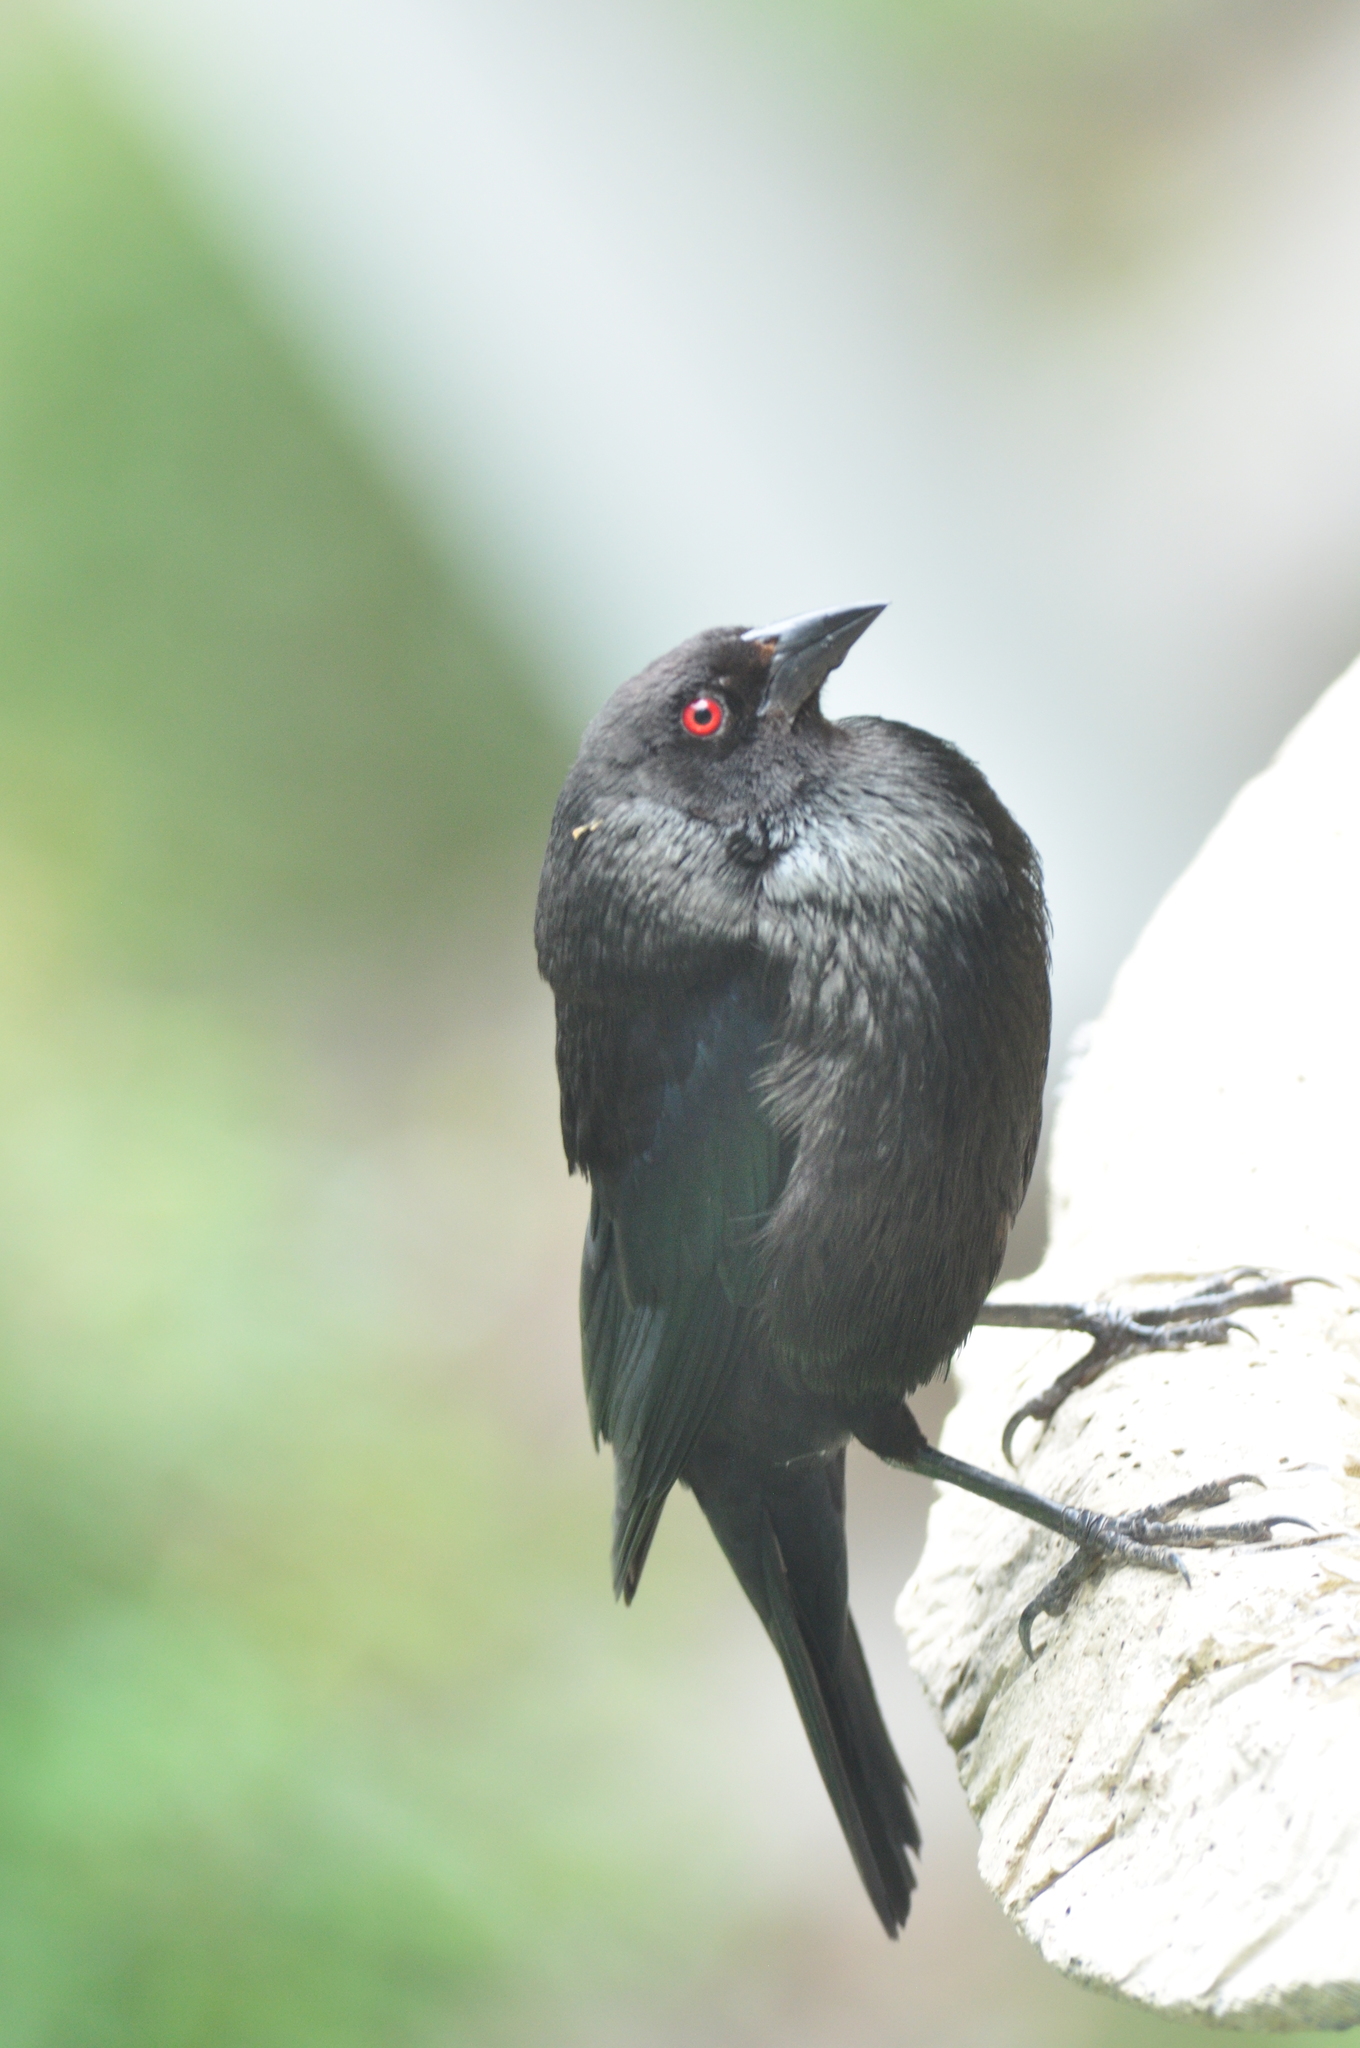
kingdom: Animalia
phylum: Chordata
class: Aves
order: Passeriformes
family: Icteridae
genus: Molothrus
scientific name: Molothrus aeneus
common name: Bronzed cowbird
